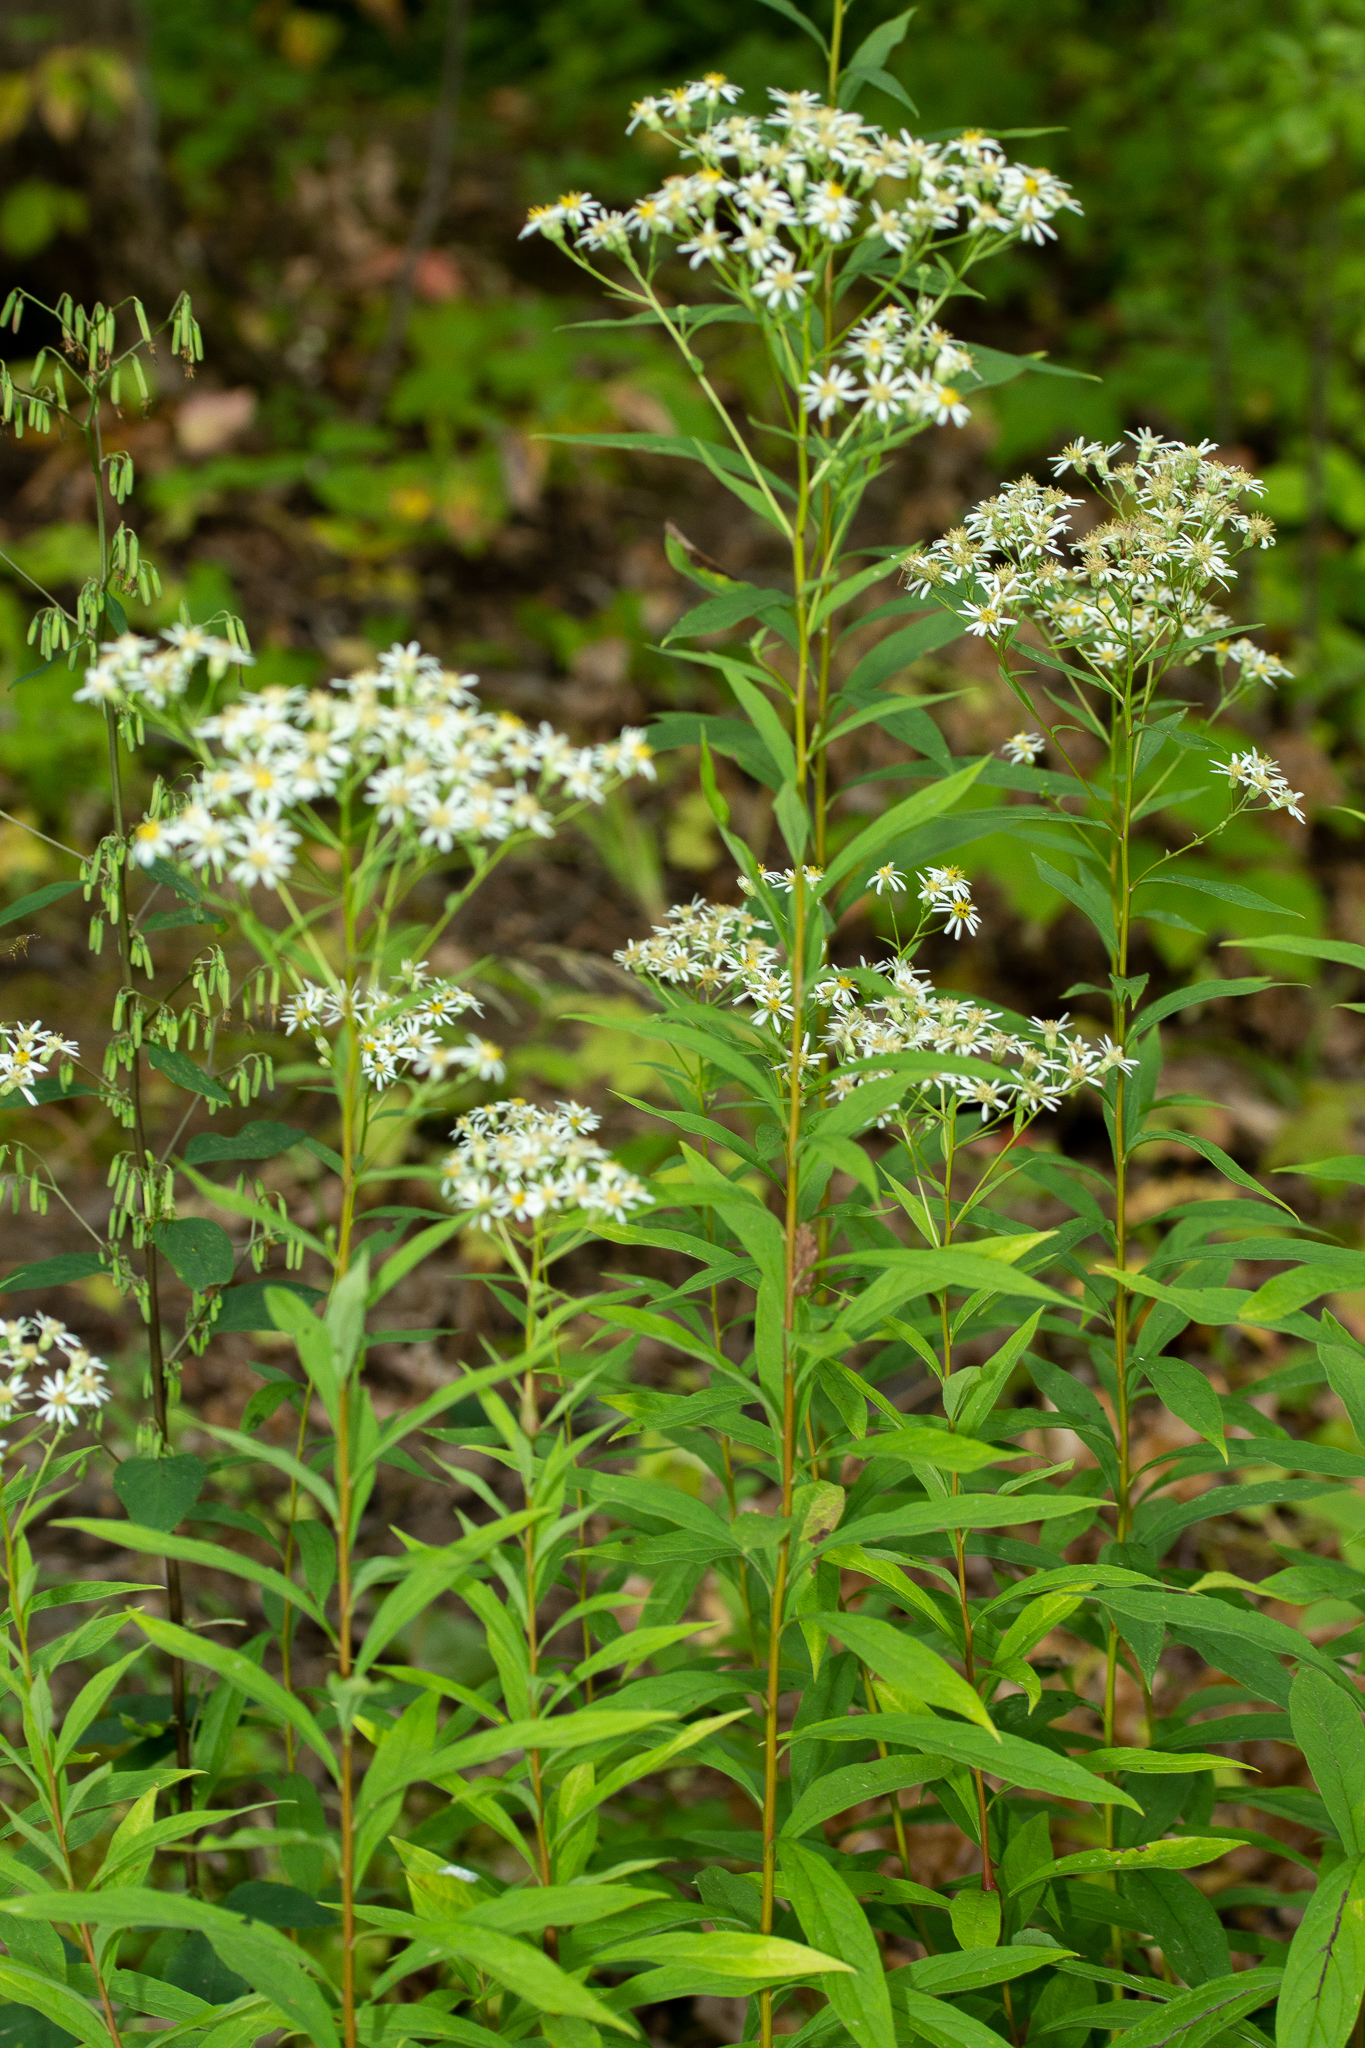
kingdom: Plantae
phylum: Tracheophyta
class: Magnoliopsida
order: Asterales
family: Asteraceae
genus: Doellingeria
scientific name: Doellingeria umbellata
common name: Flat-top white aster
